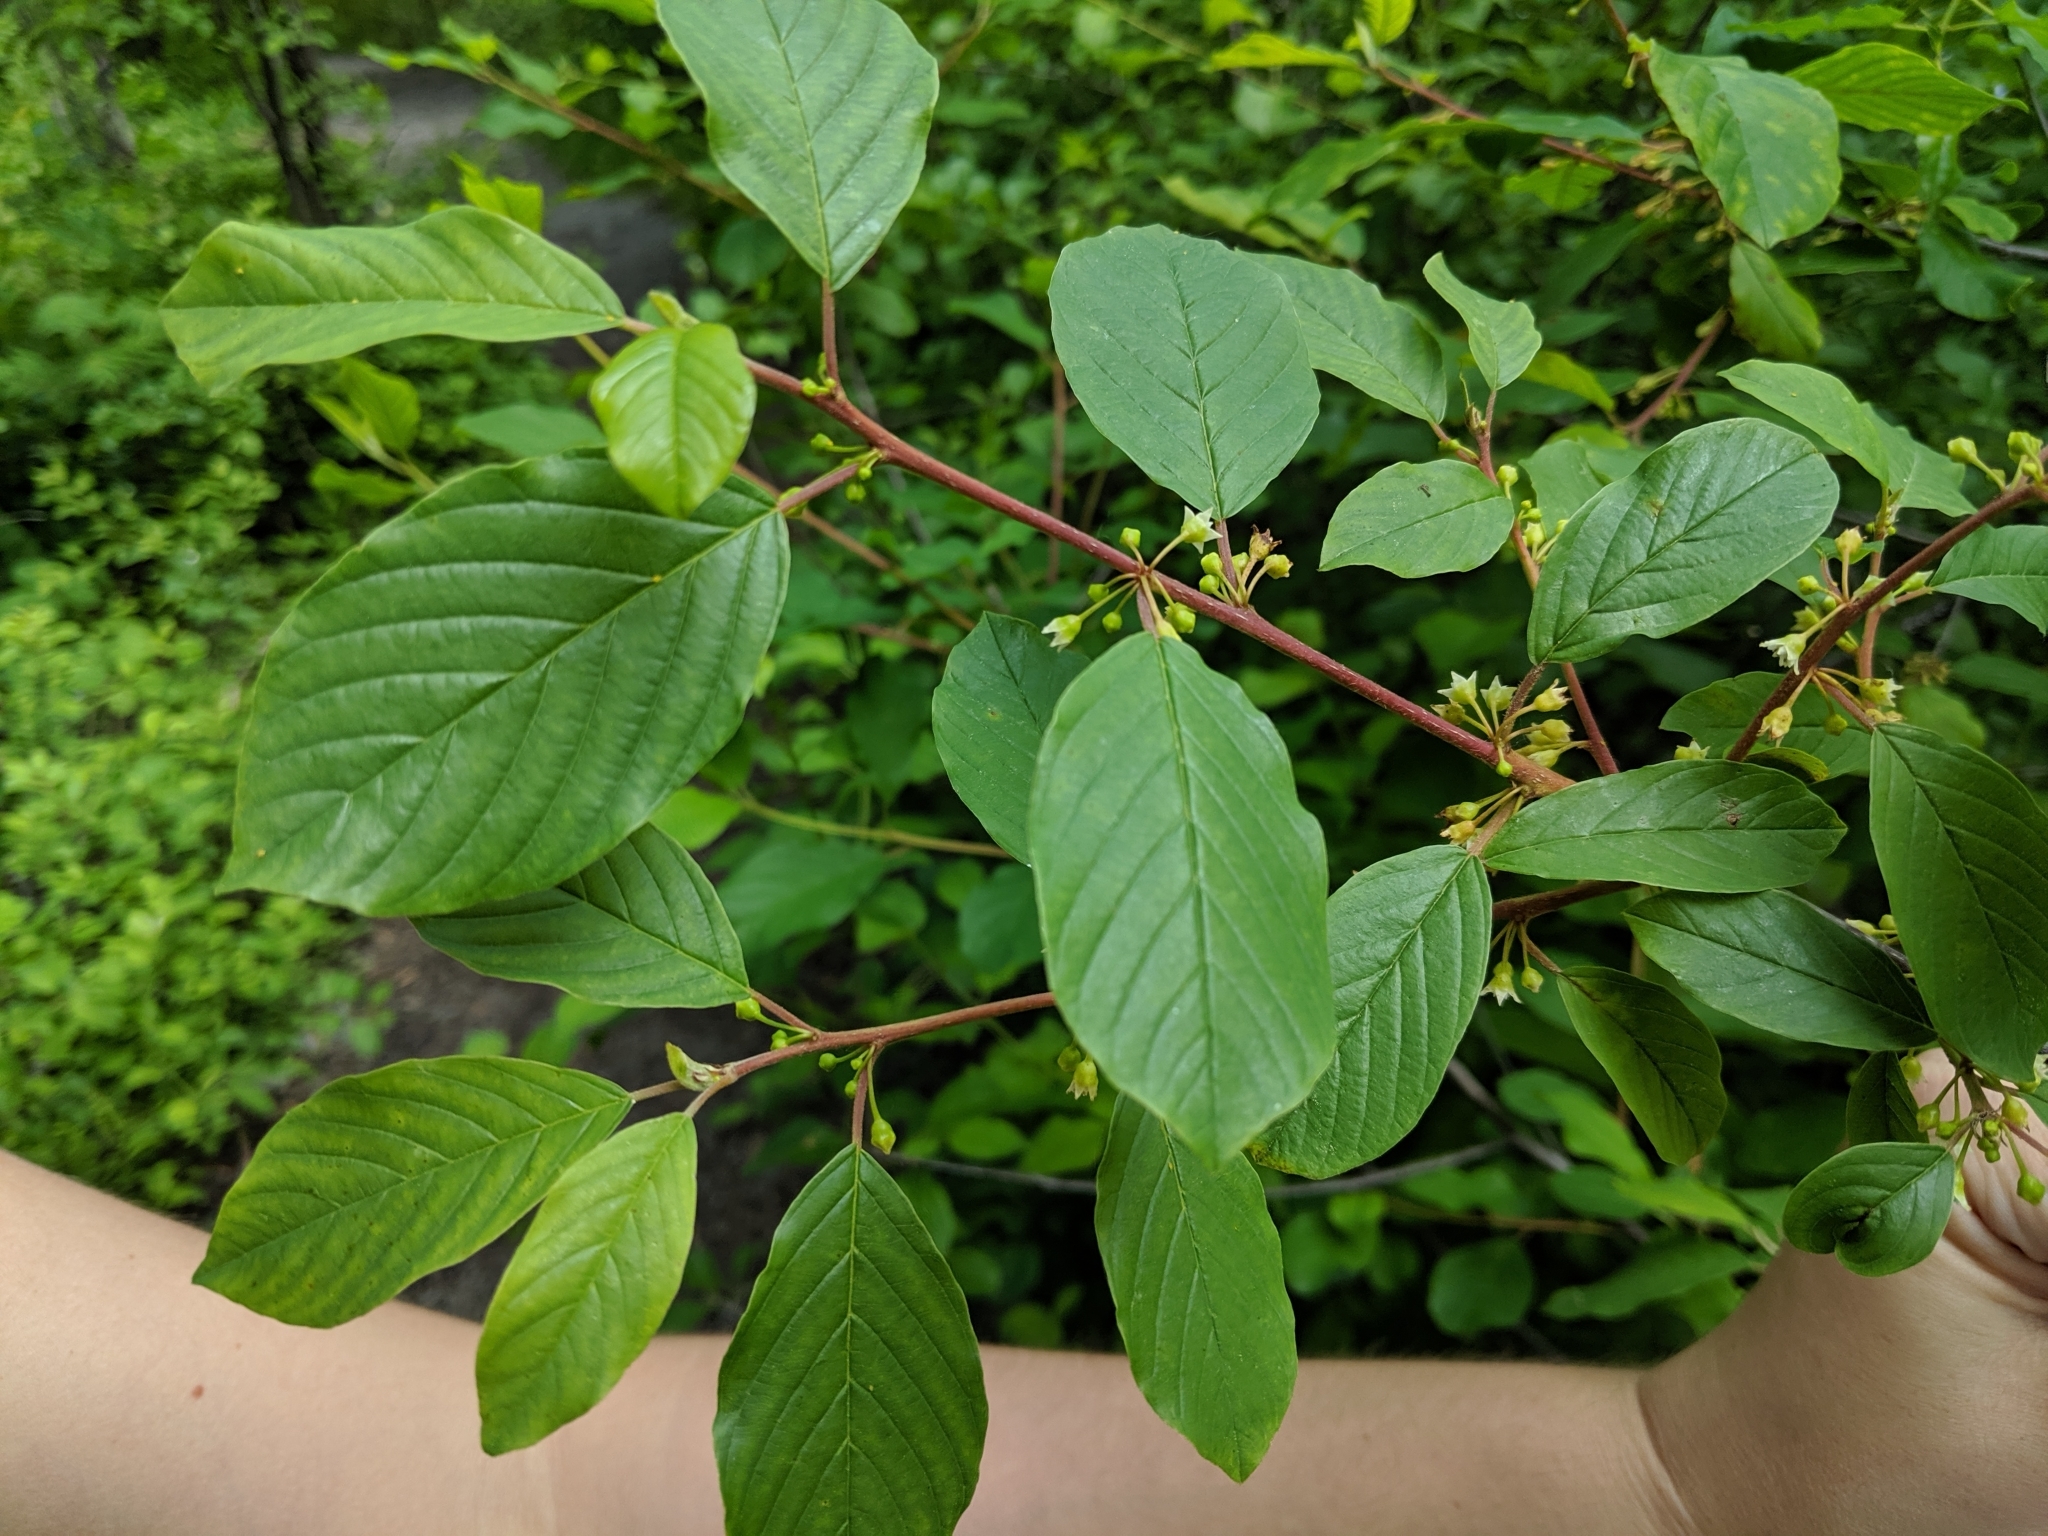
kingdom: Plantae
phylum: Tracheophyta
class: Magnoliopsida
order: Rosales
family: Rhamnaceae
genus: Frangula
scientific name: Frangula alnus
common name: Alder buckthorn
